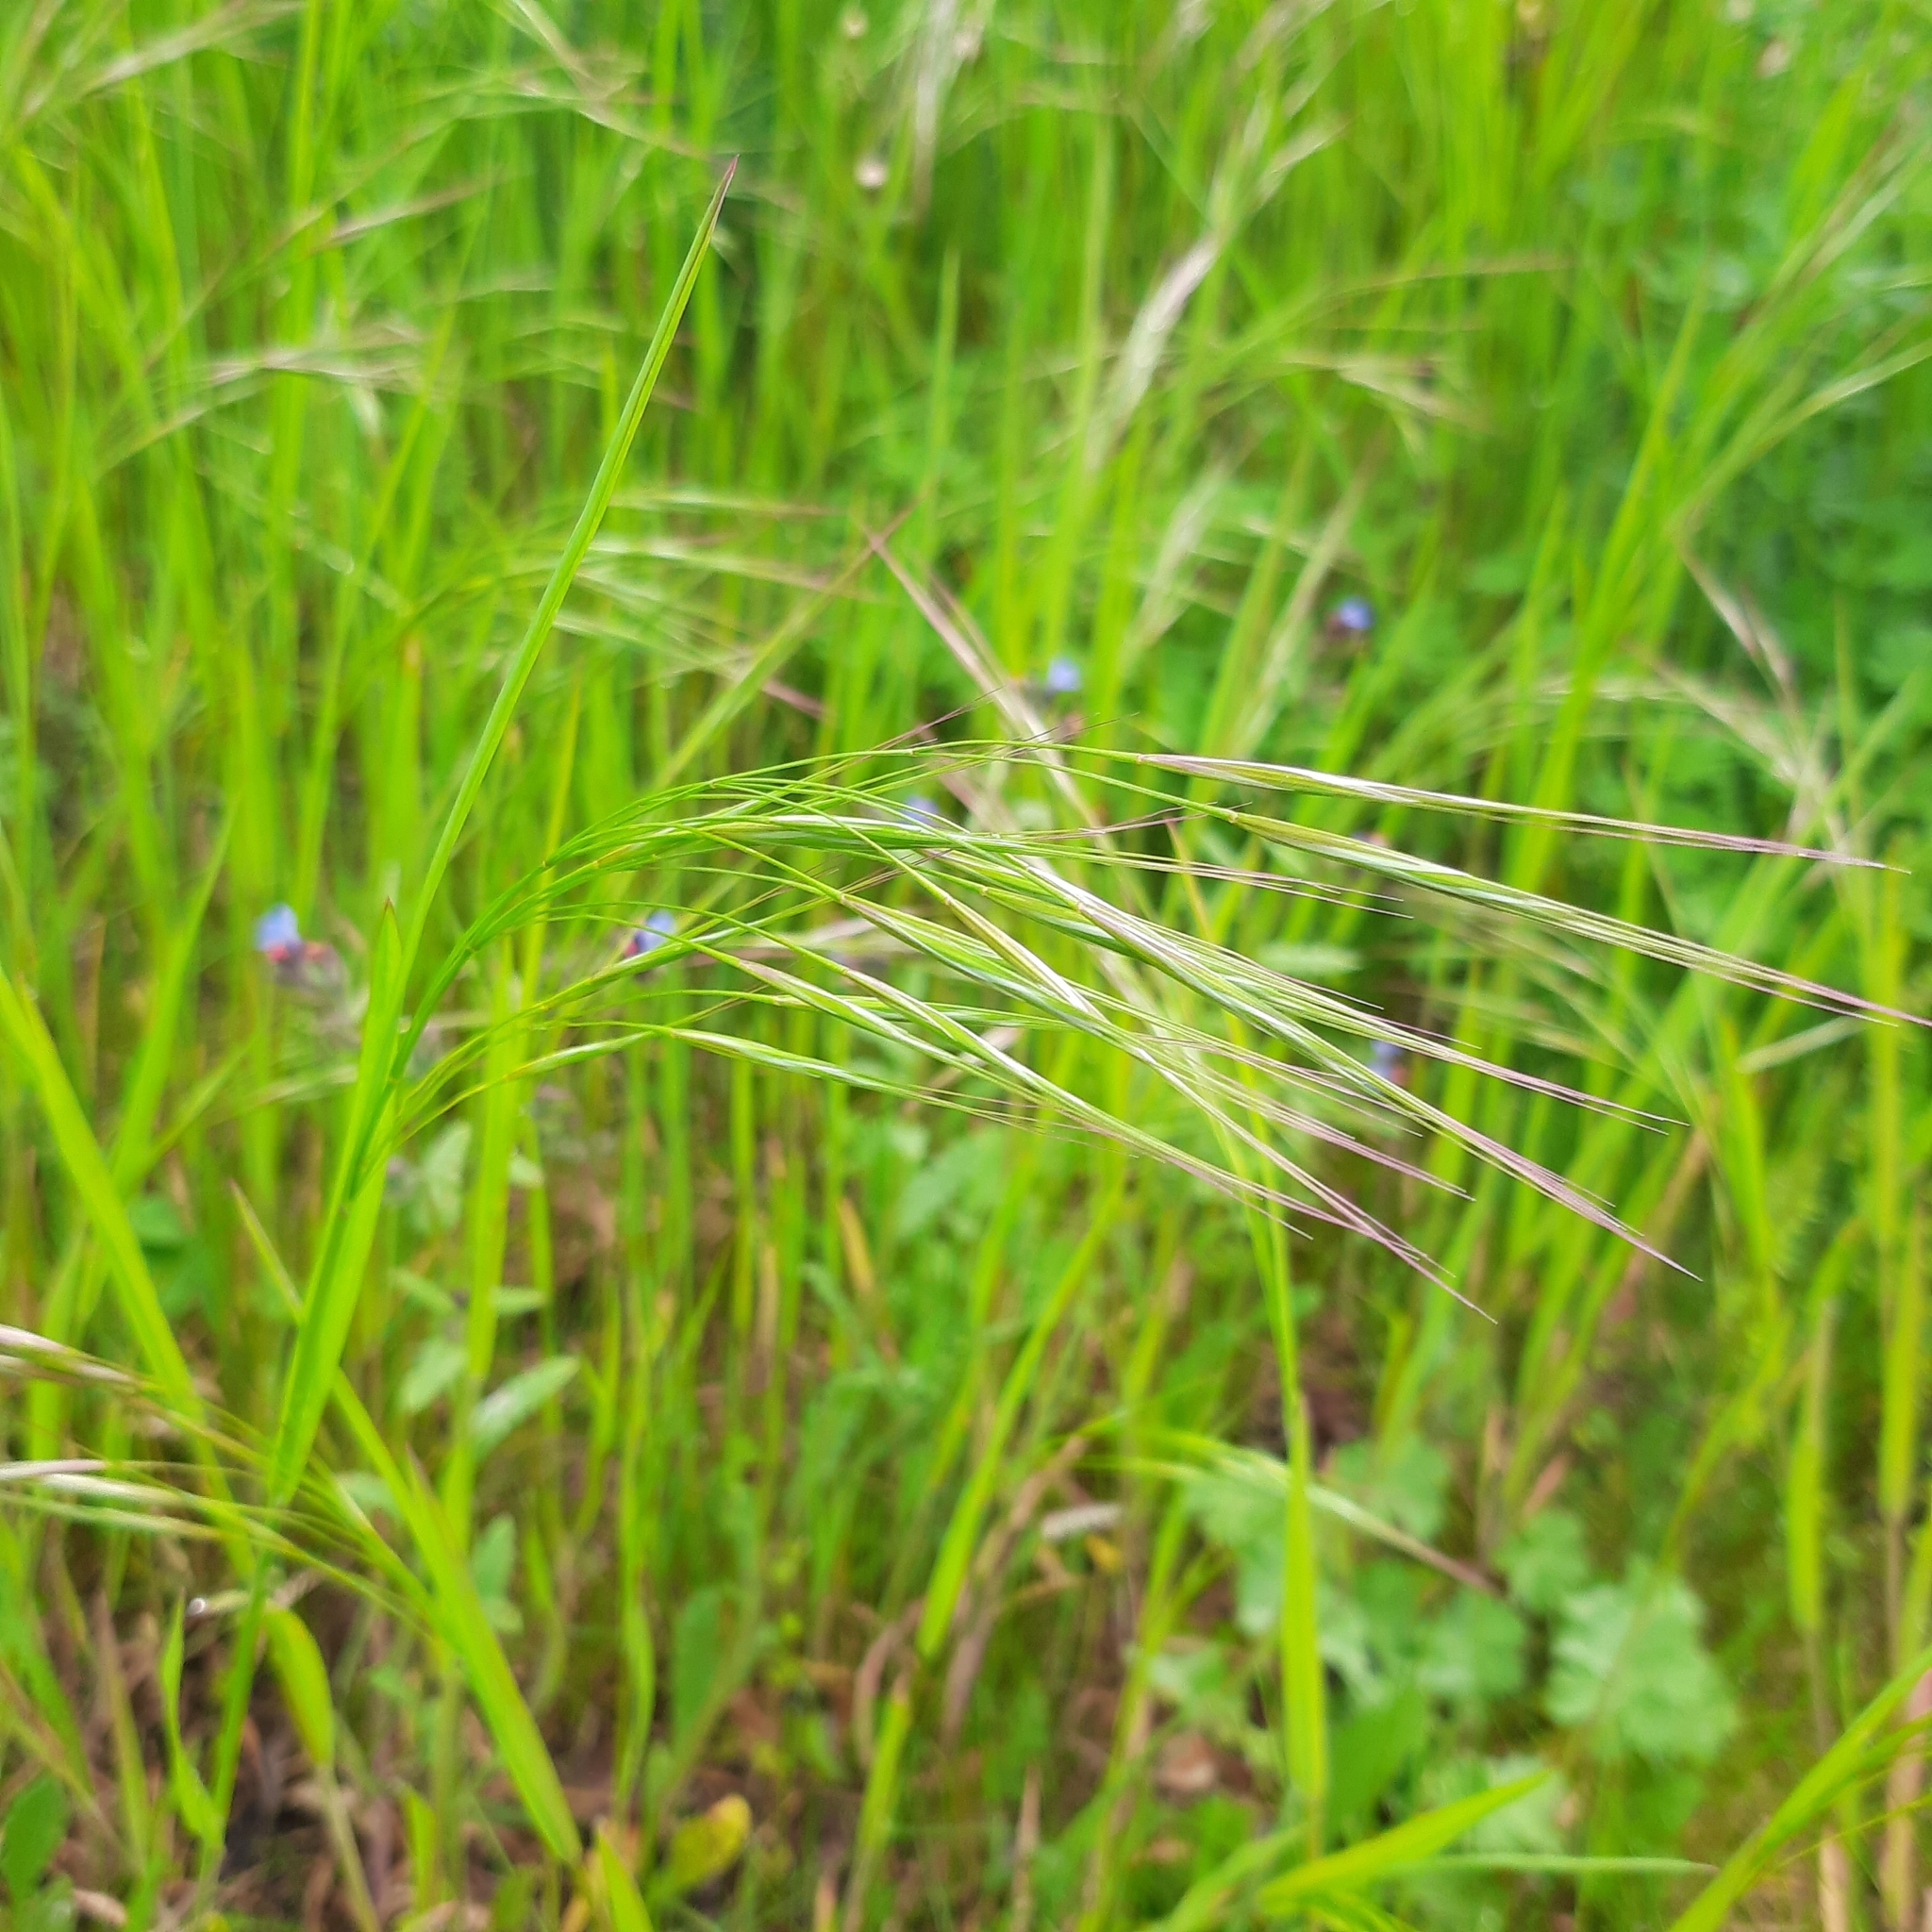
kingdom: Plantae
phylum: Tracheophyta
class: Liliopsida
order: Poales
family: Poaceae
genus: Bromus
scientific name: Bromus sterilis
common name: Poverty brome
